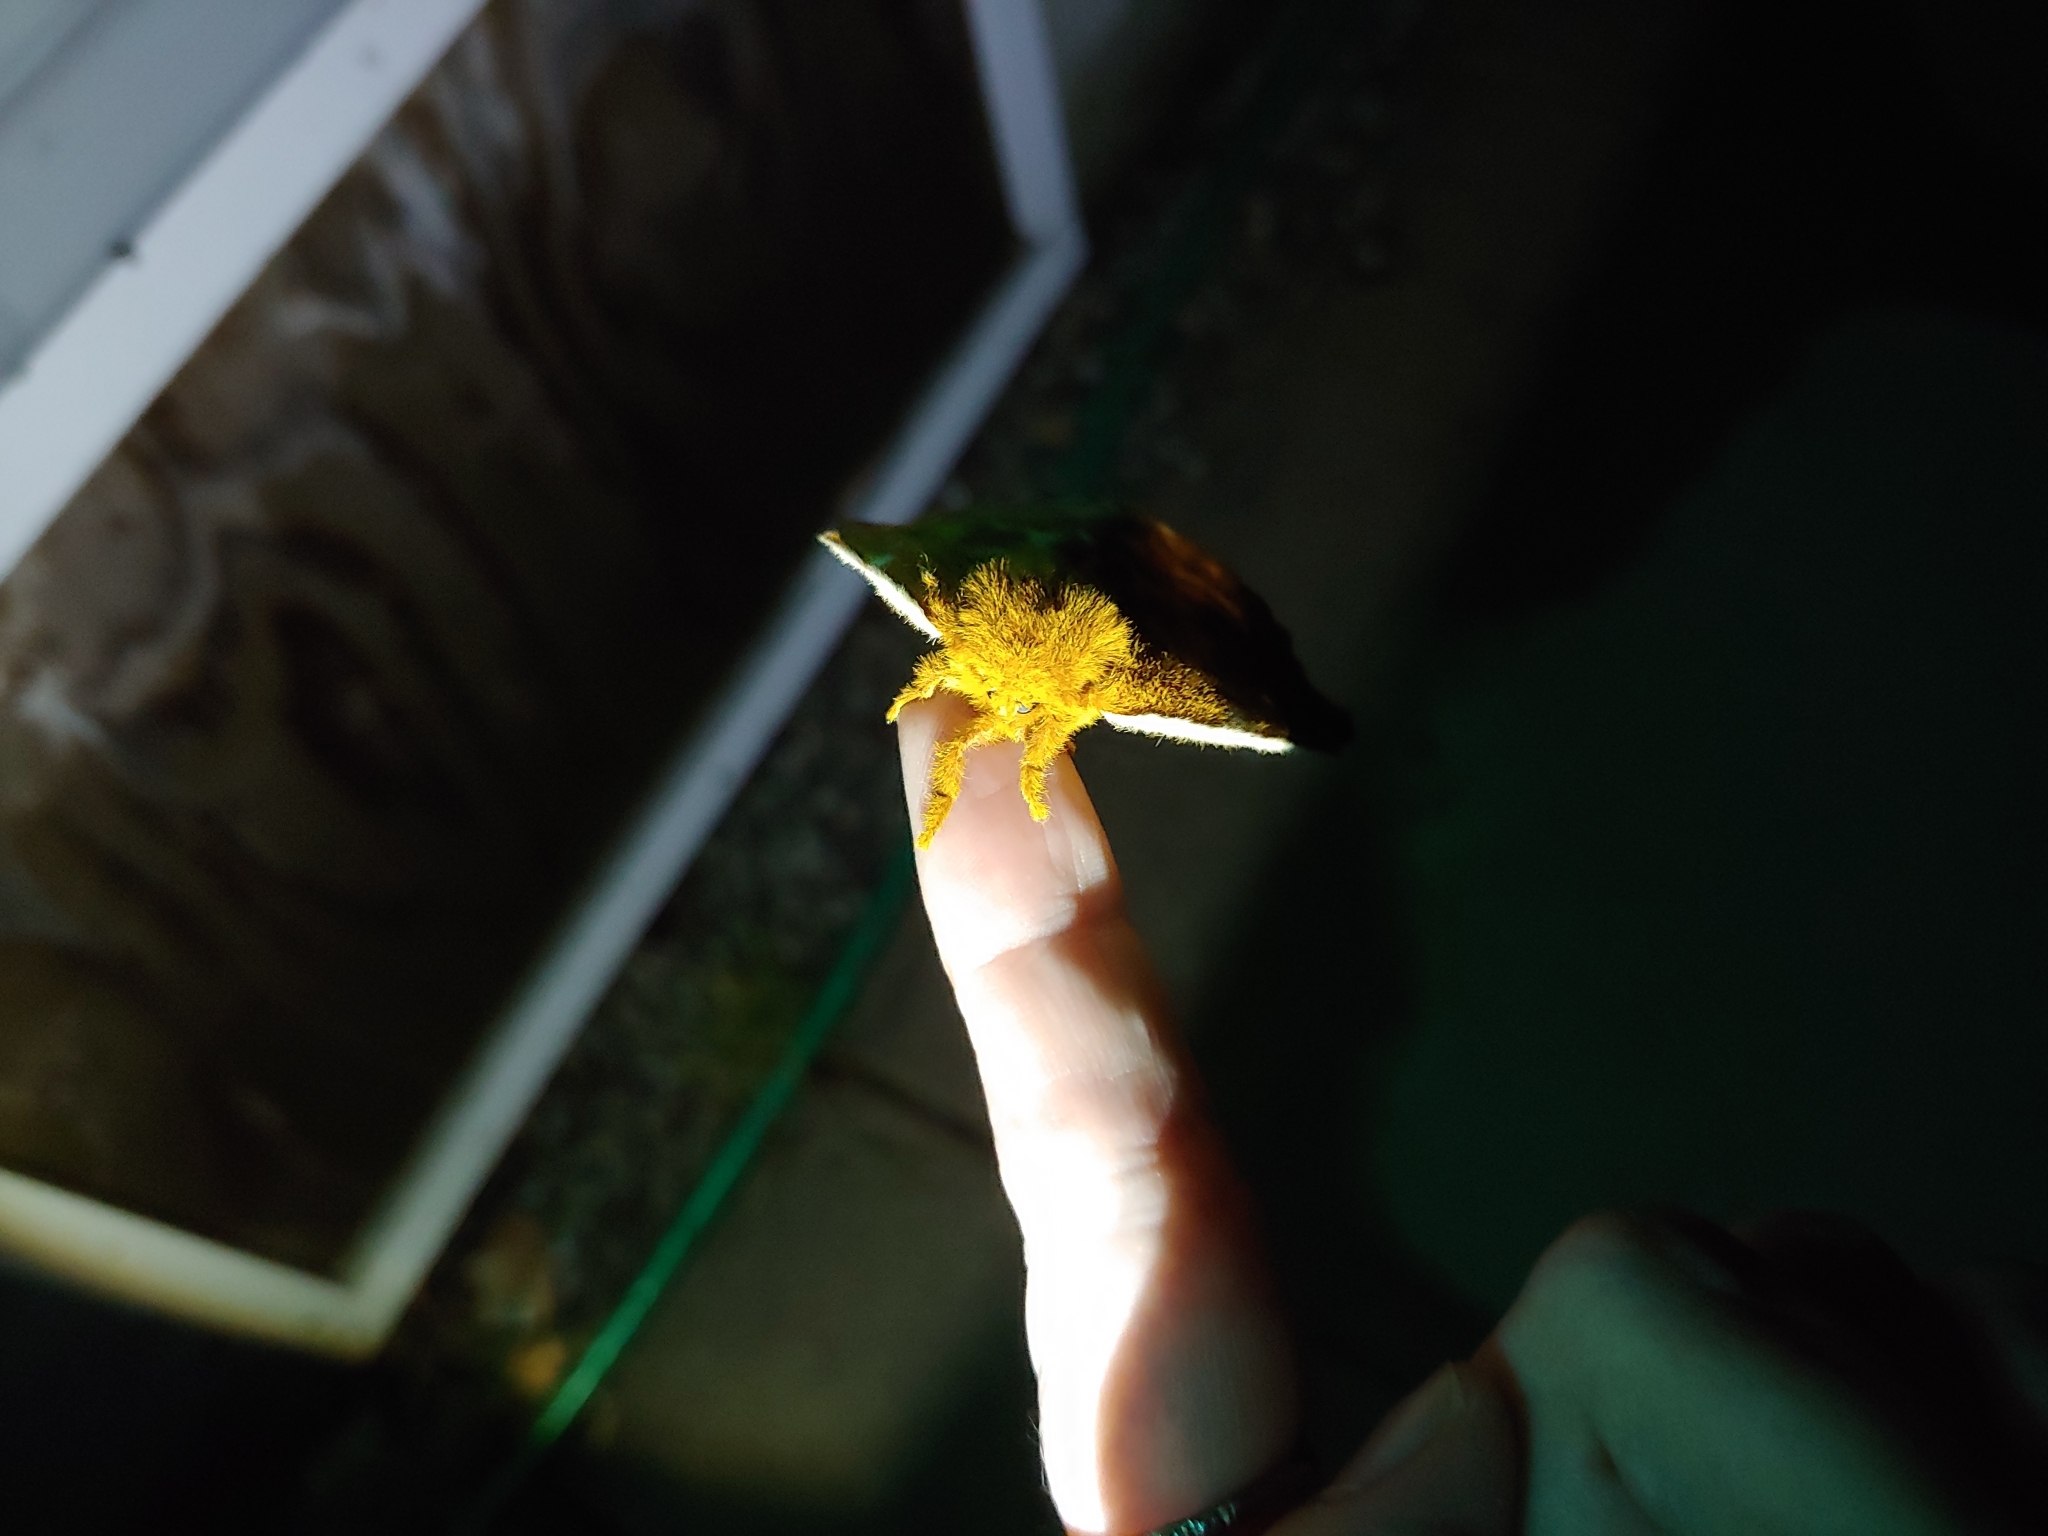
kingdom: Animalia
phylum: Arthropoda
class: Insecta
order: Lepidoptera
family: Saturniidae
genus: Automeris
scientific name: Automeris io
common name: Io moth
